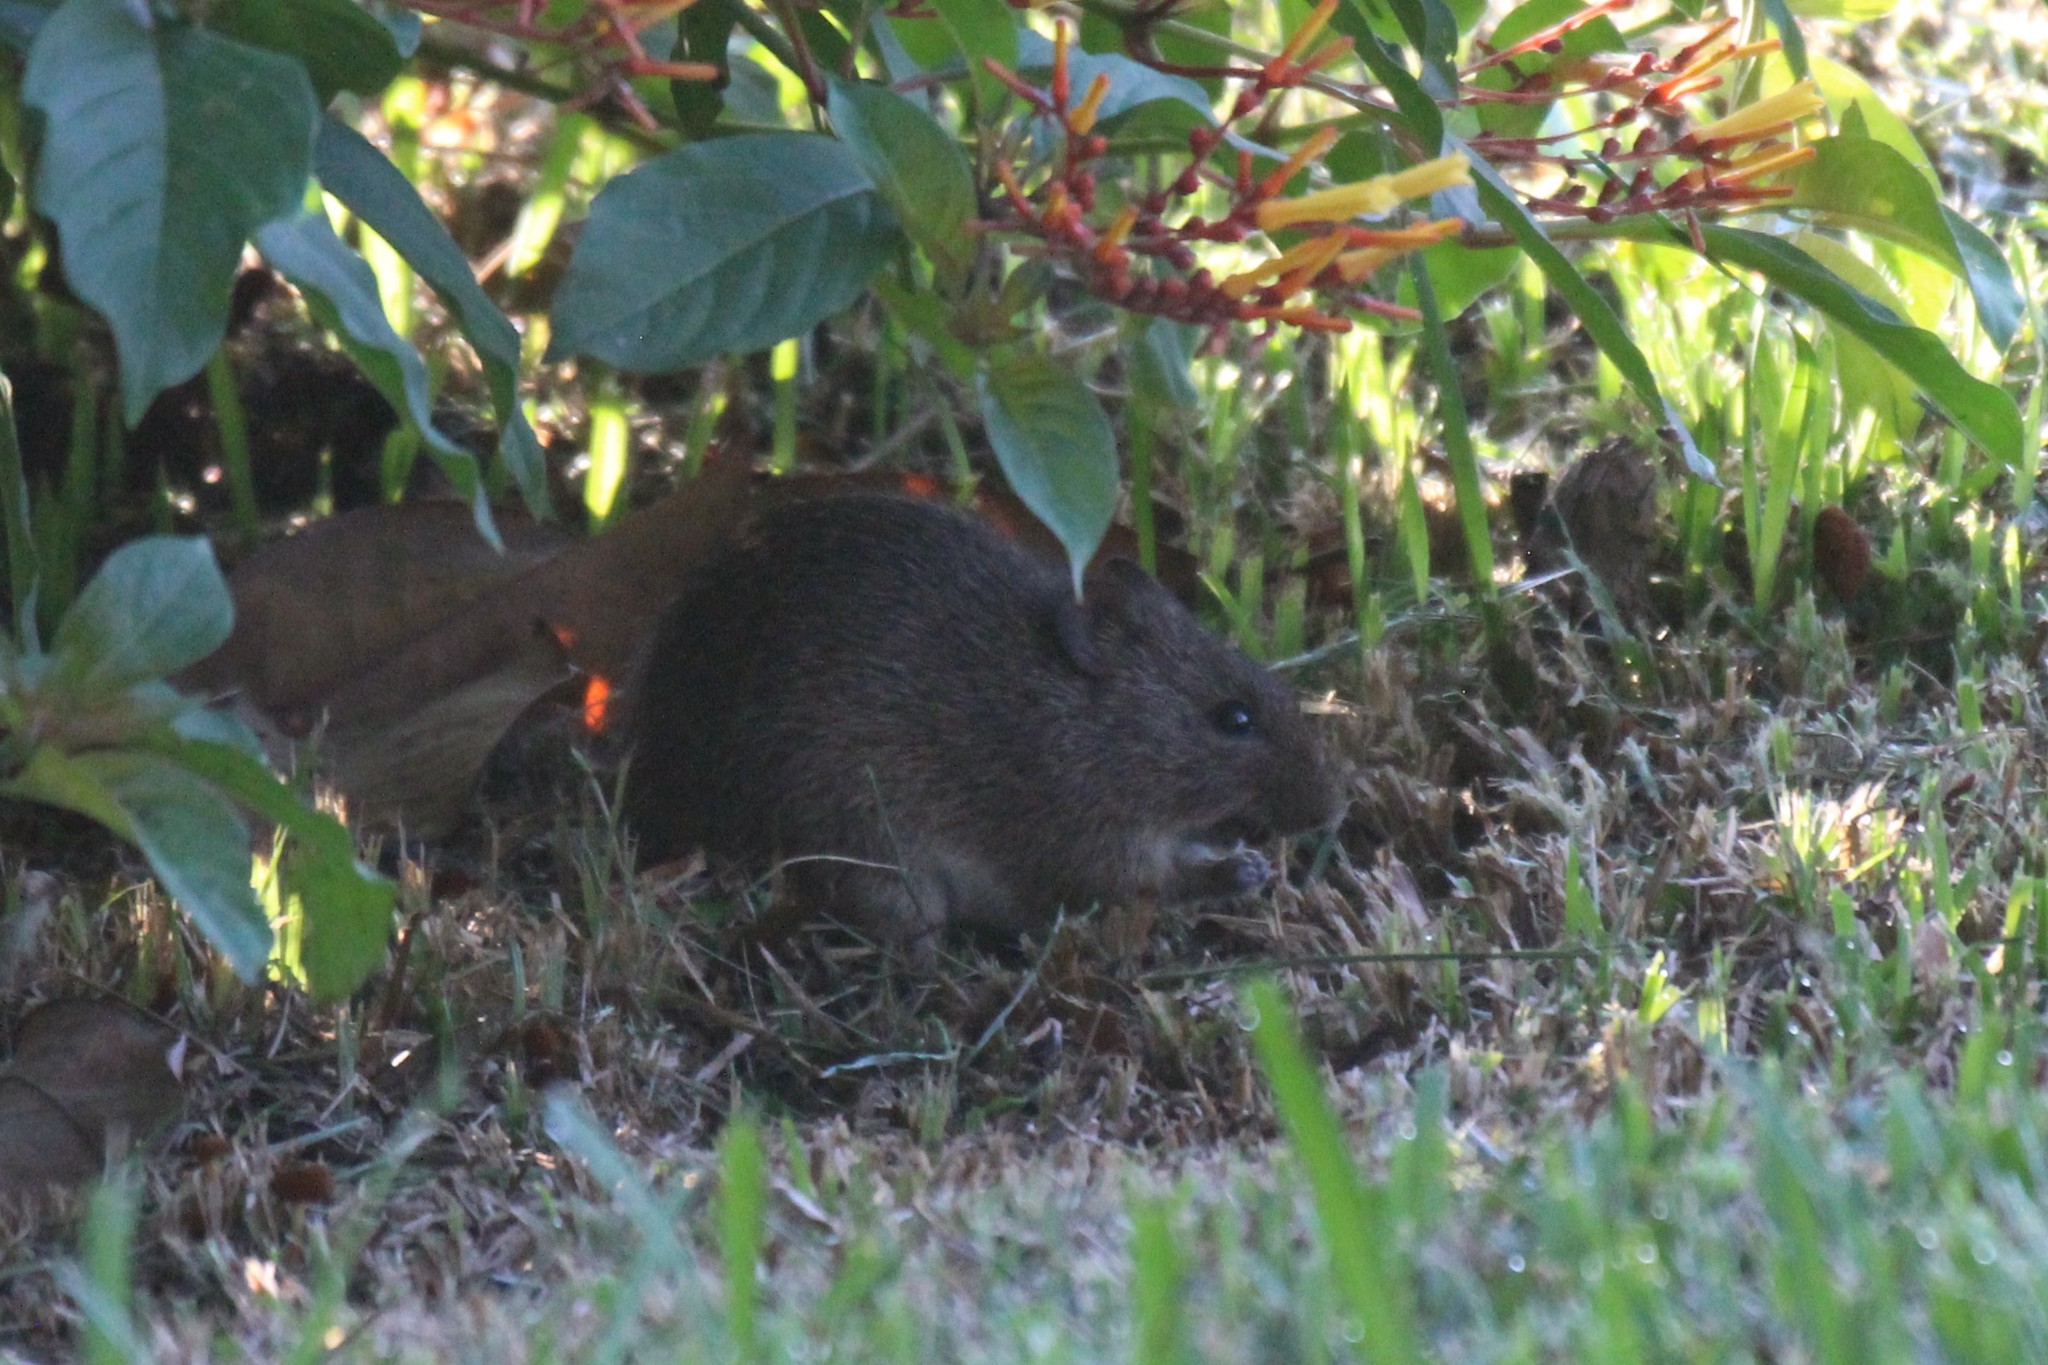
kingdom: Animalia
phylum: Chordata
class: Mammalia
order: Rodentia
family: Cricetidae
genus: Sigmodon
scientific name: Sigmodon hispidus
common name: Hispid cotton rat
